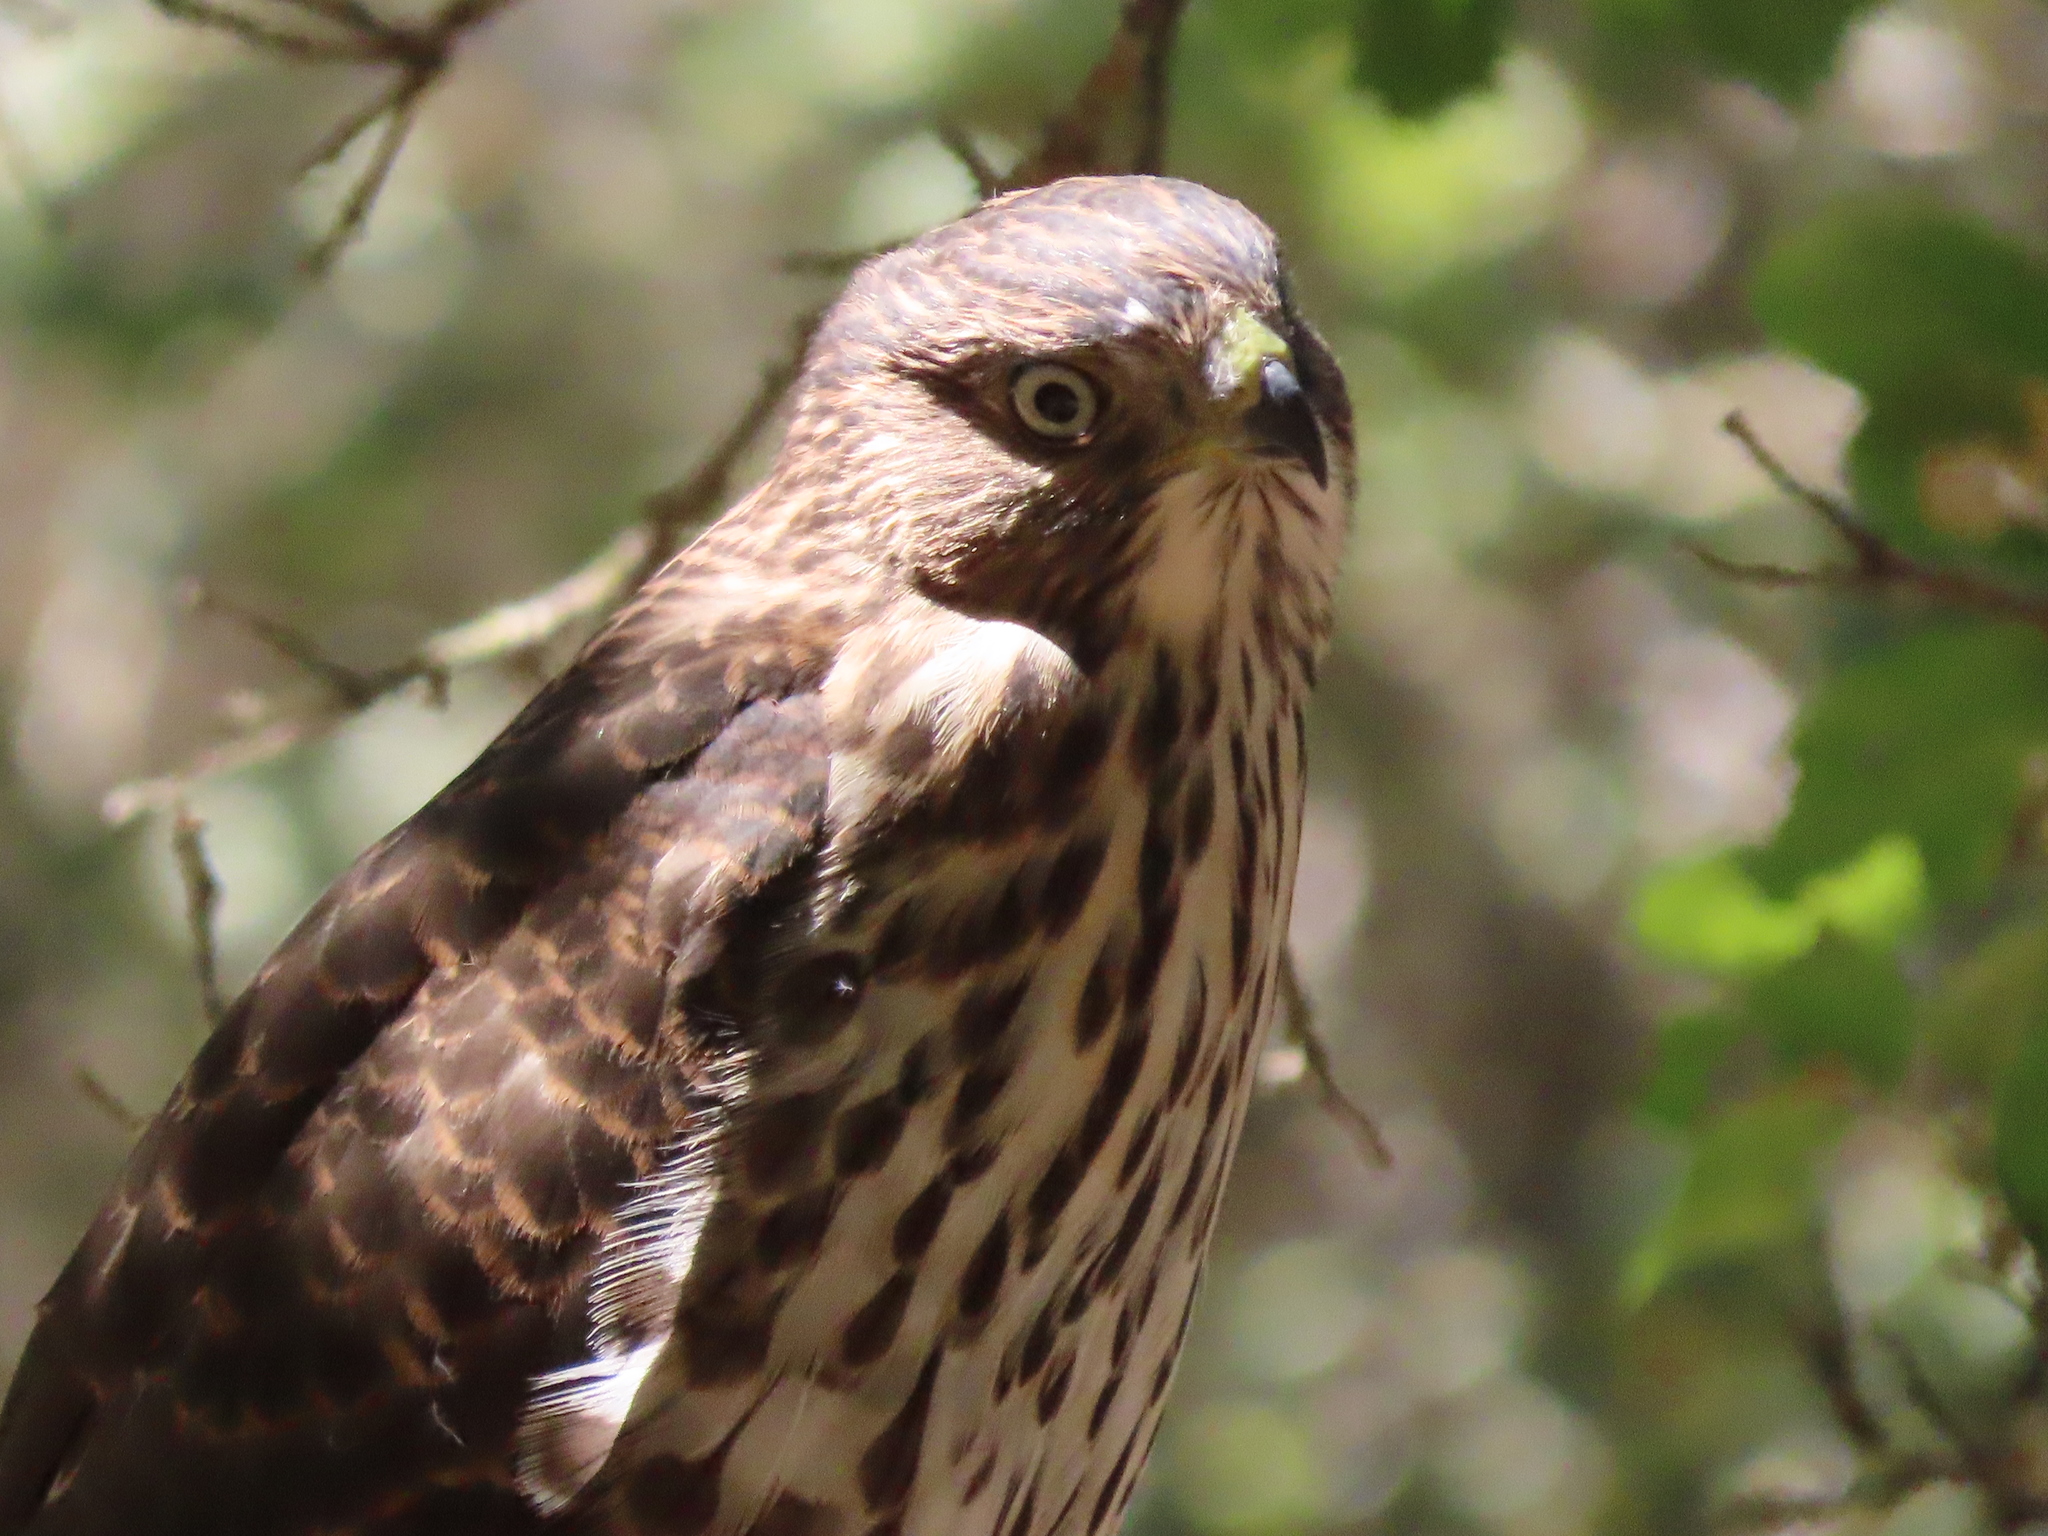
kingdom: Animalia
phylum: Chordata
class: Aves
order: Accipitriformes
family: Accipitridae
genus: Accipiter
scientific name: Accipiter cooperii
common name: Cooper's hawk
